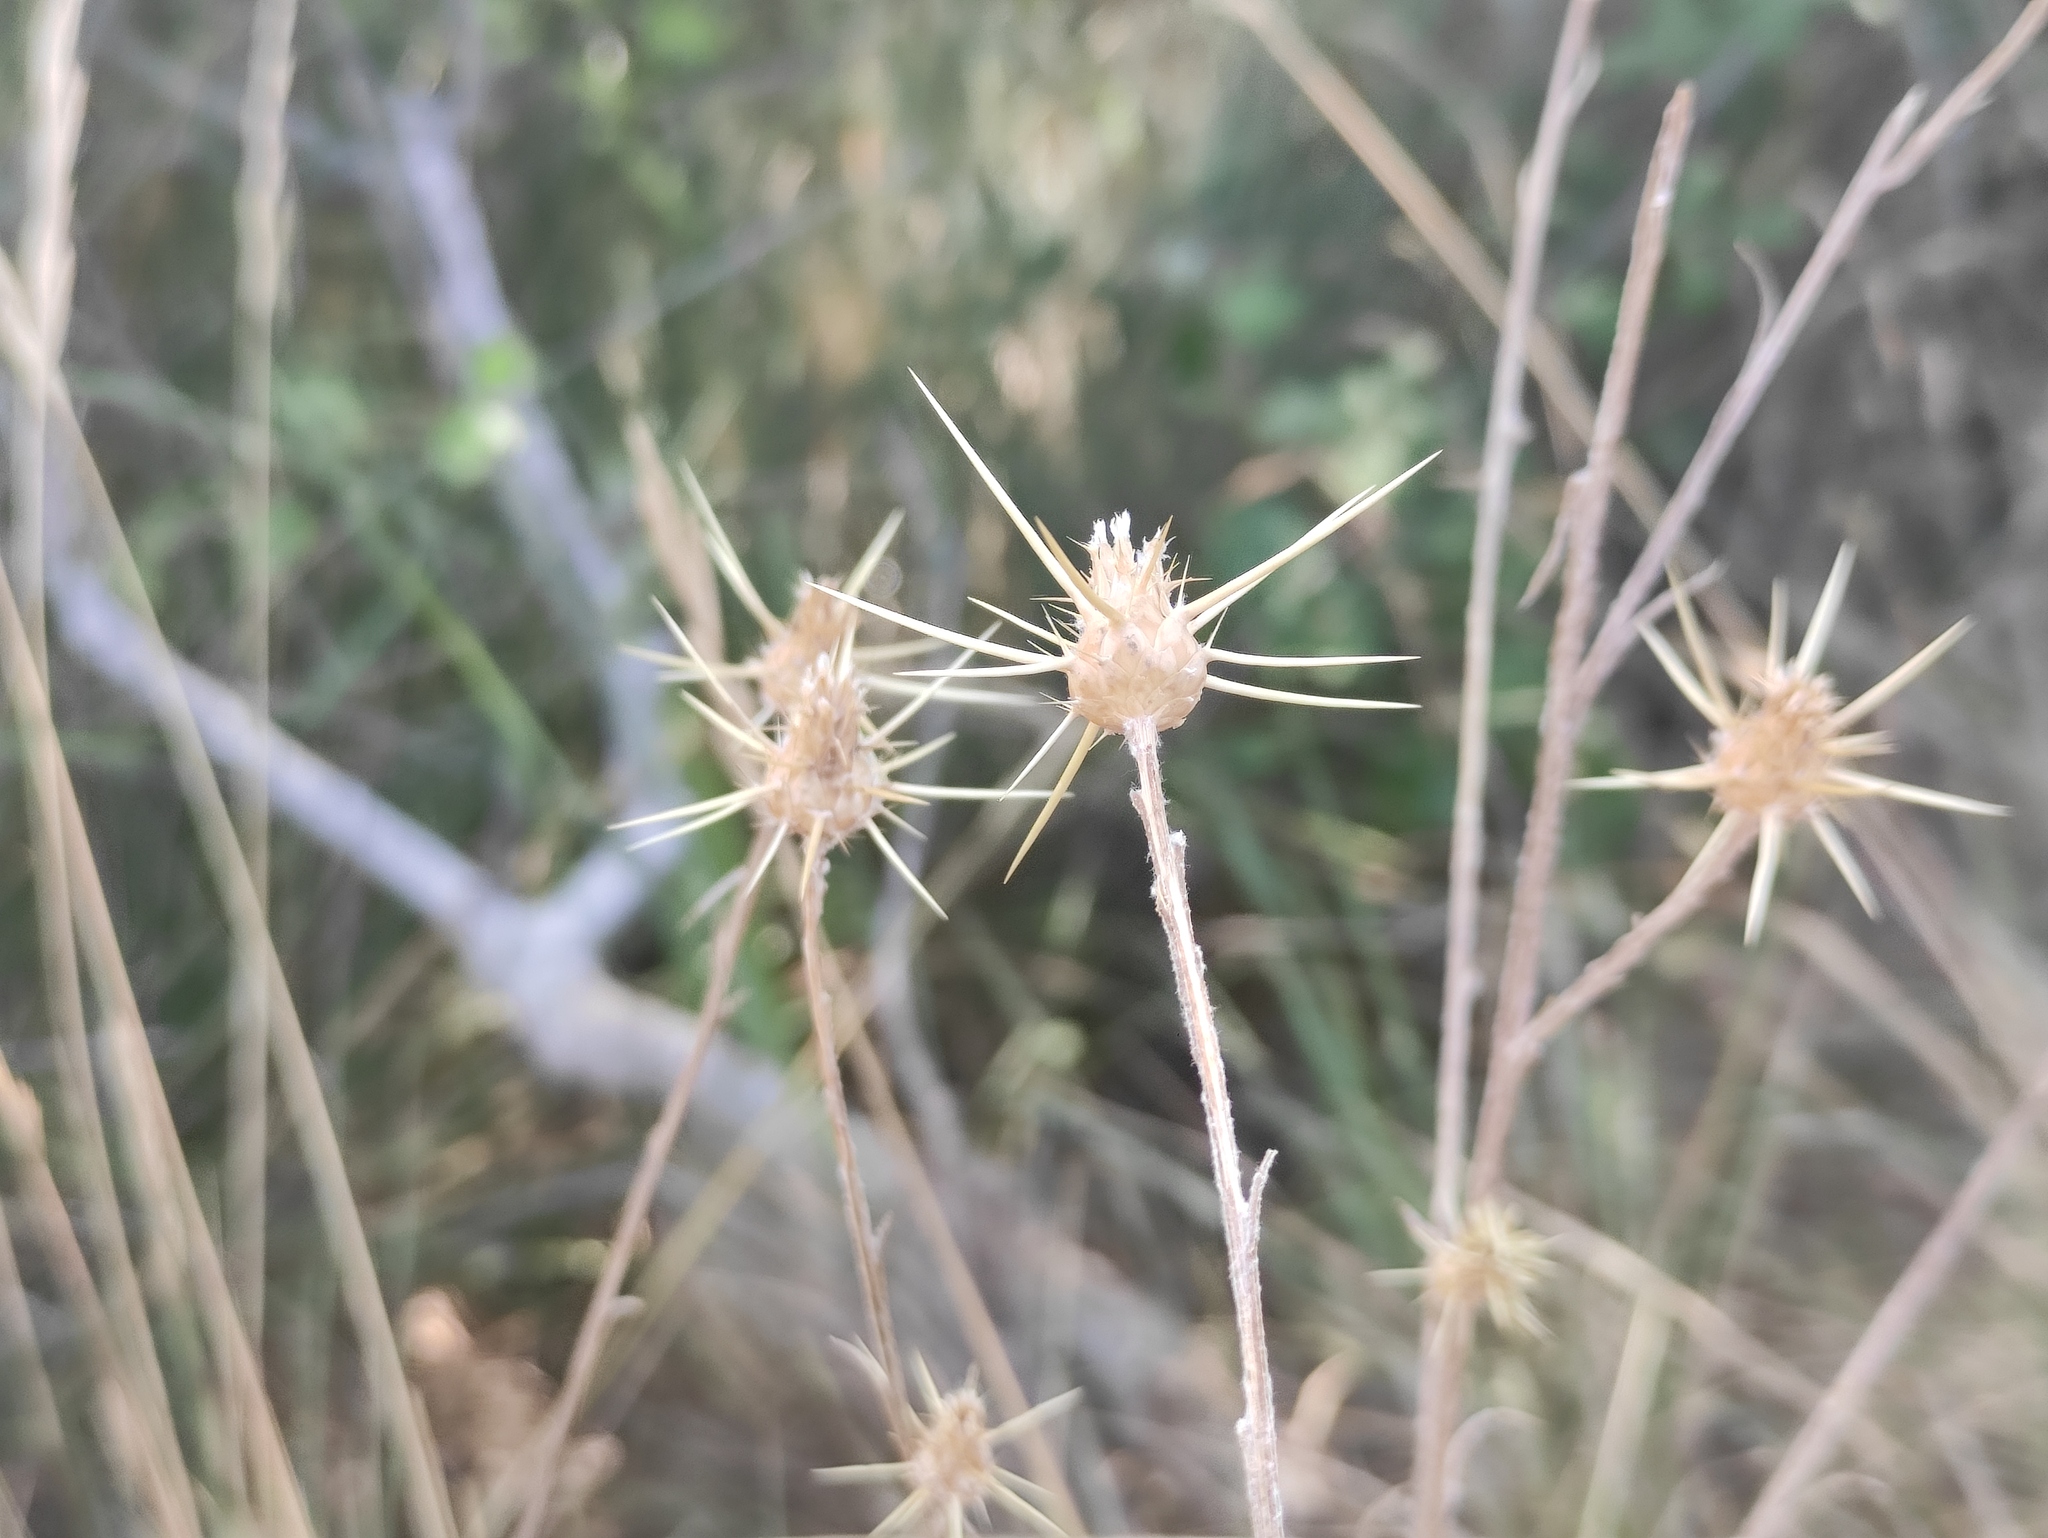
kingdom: Plantae
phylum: Tracheophyta
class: Magnoliopsida
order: Asterales
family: Asteraceae
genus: Centaurea
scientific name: Centaurea solstitialis
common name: Yellow star-thistle
